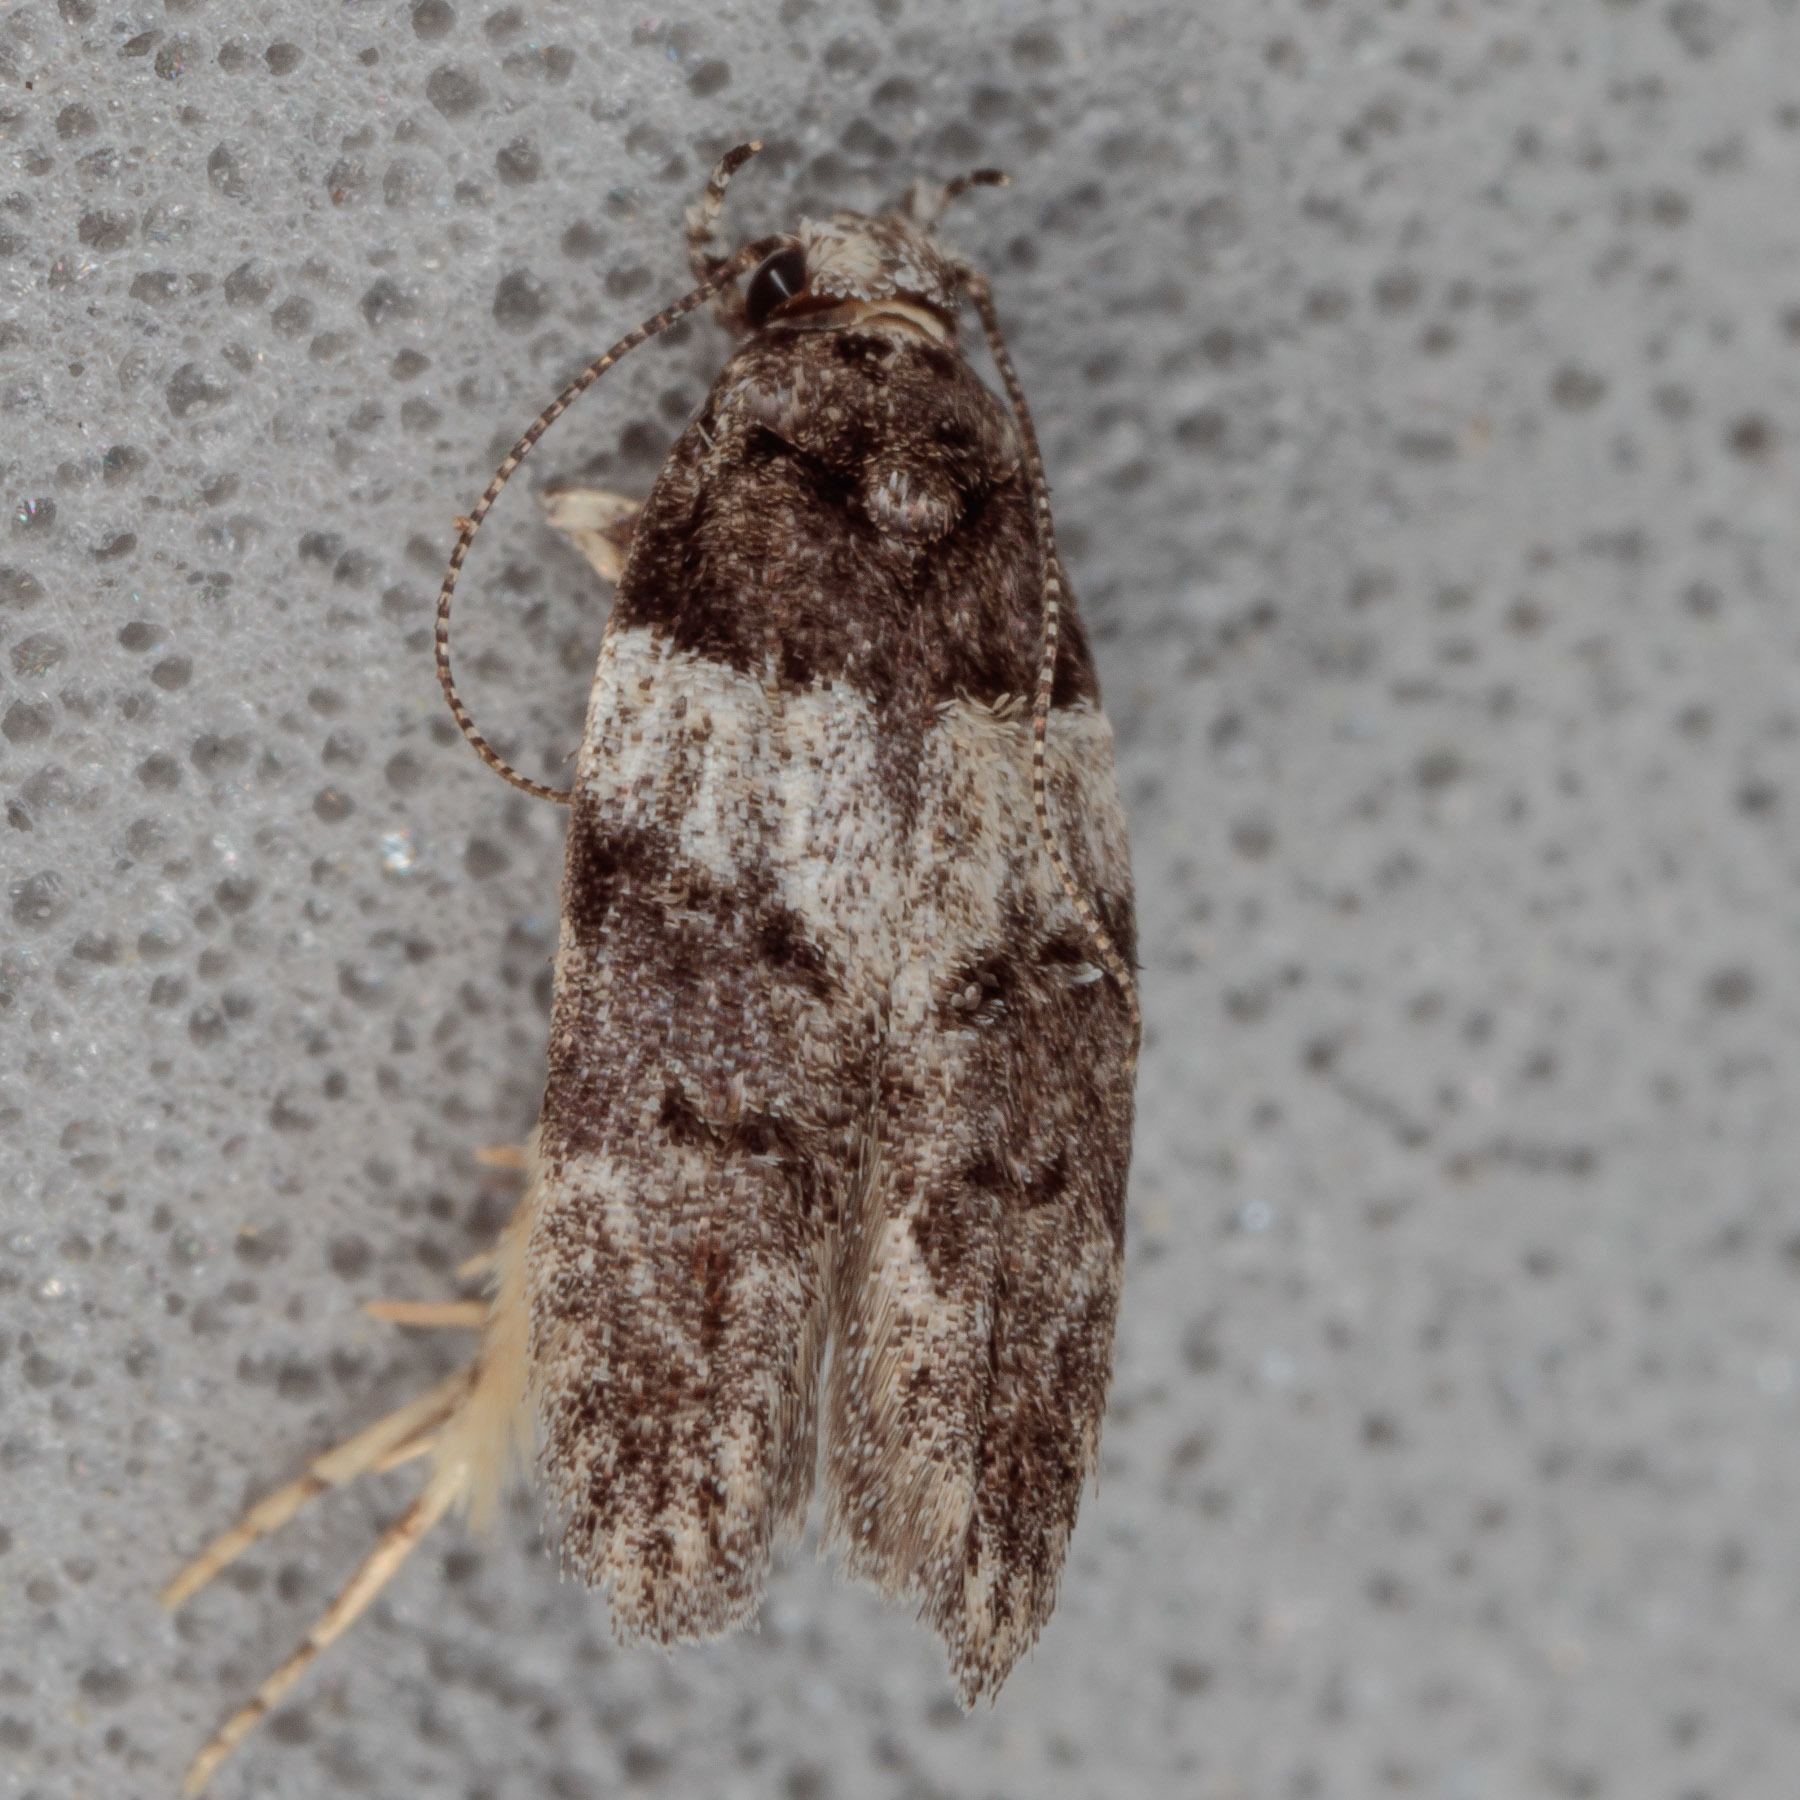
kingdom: Animalia
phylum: Arthropoda
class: Insecta
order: Lepidoptera
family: Gelechiidae
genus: Pubitelphusa
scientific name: Pubitelphusa latifasciella
